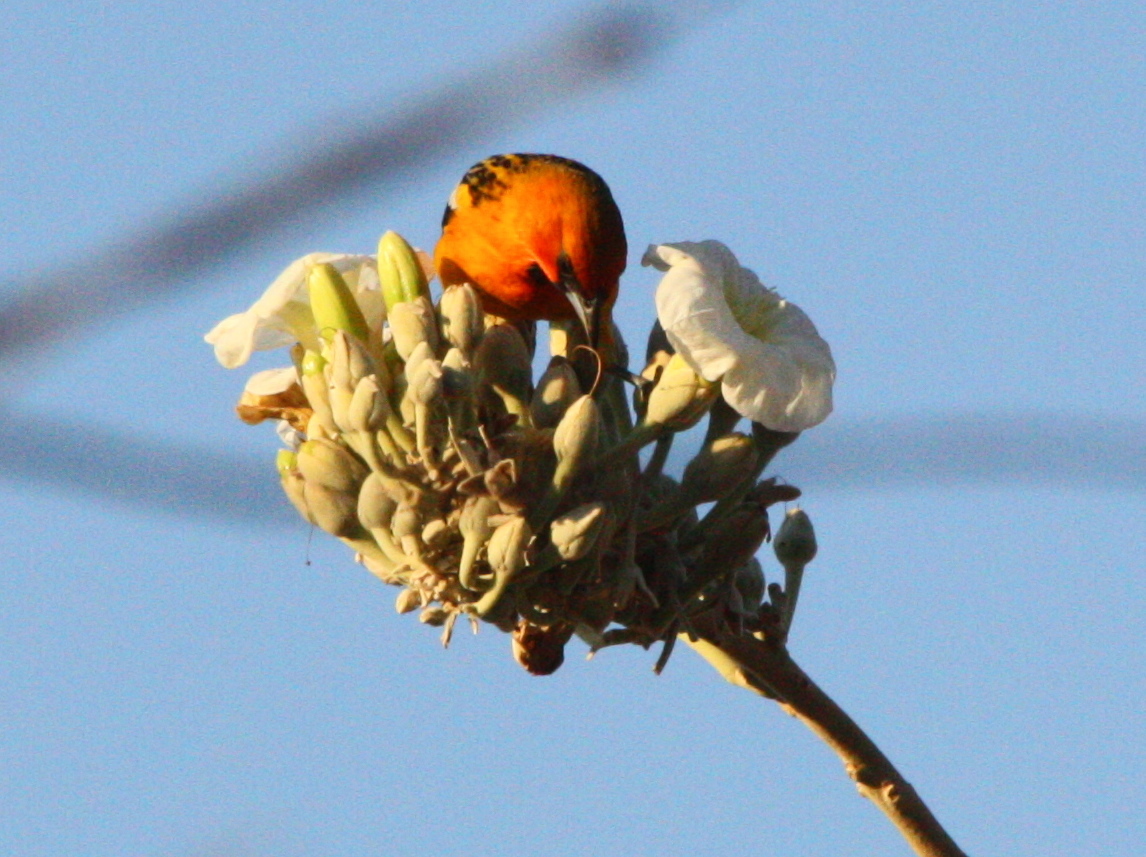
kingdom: Animalia
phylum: Chordata
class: Aves
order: Passeriformes
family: Icteridae
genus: Icterus
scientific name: Icterus pustulatus
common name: Streak-backed oriole
